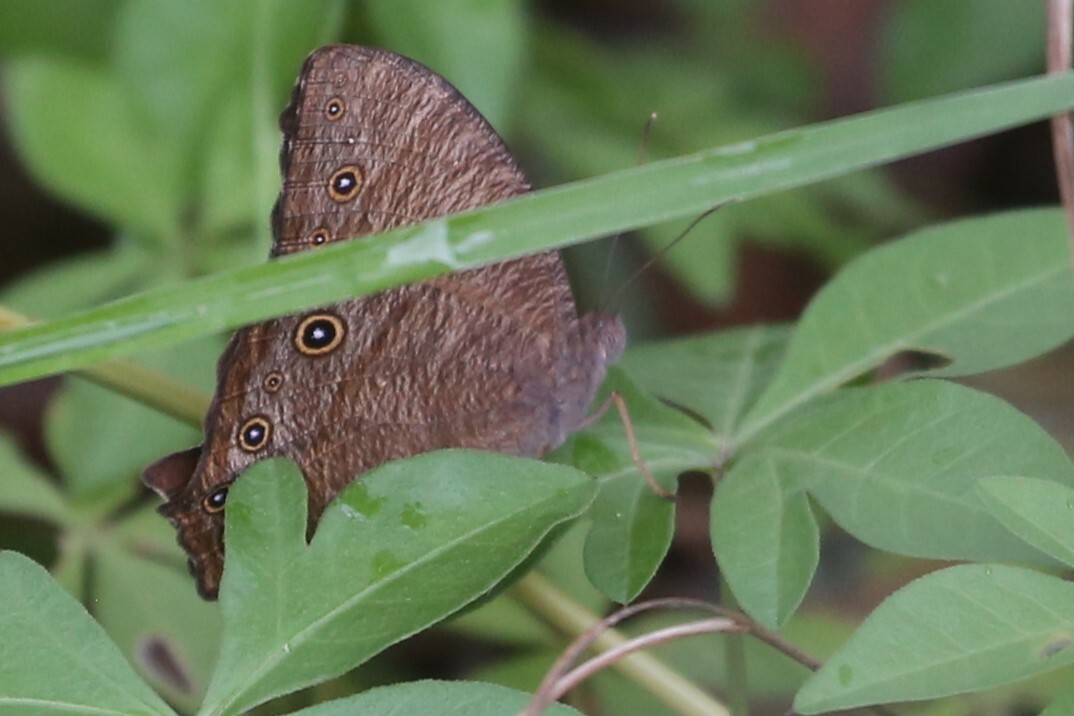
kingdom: Animalia
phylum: Arthropoda
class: Insecta
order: Lepidoptera
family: Nymphalidae
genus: Melanitis
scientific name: Melanitis leda
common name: Twilight brown
